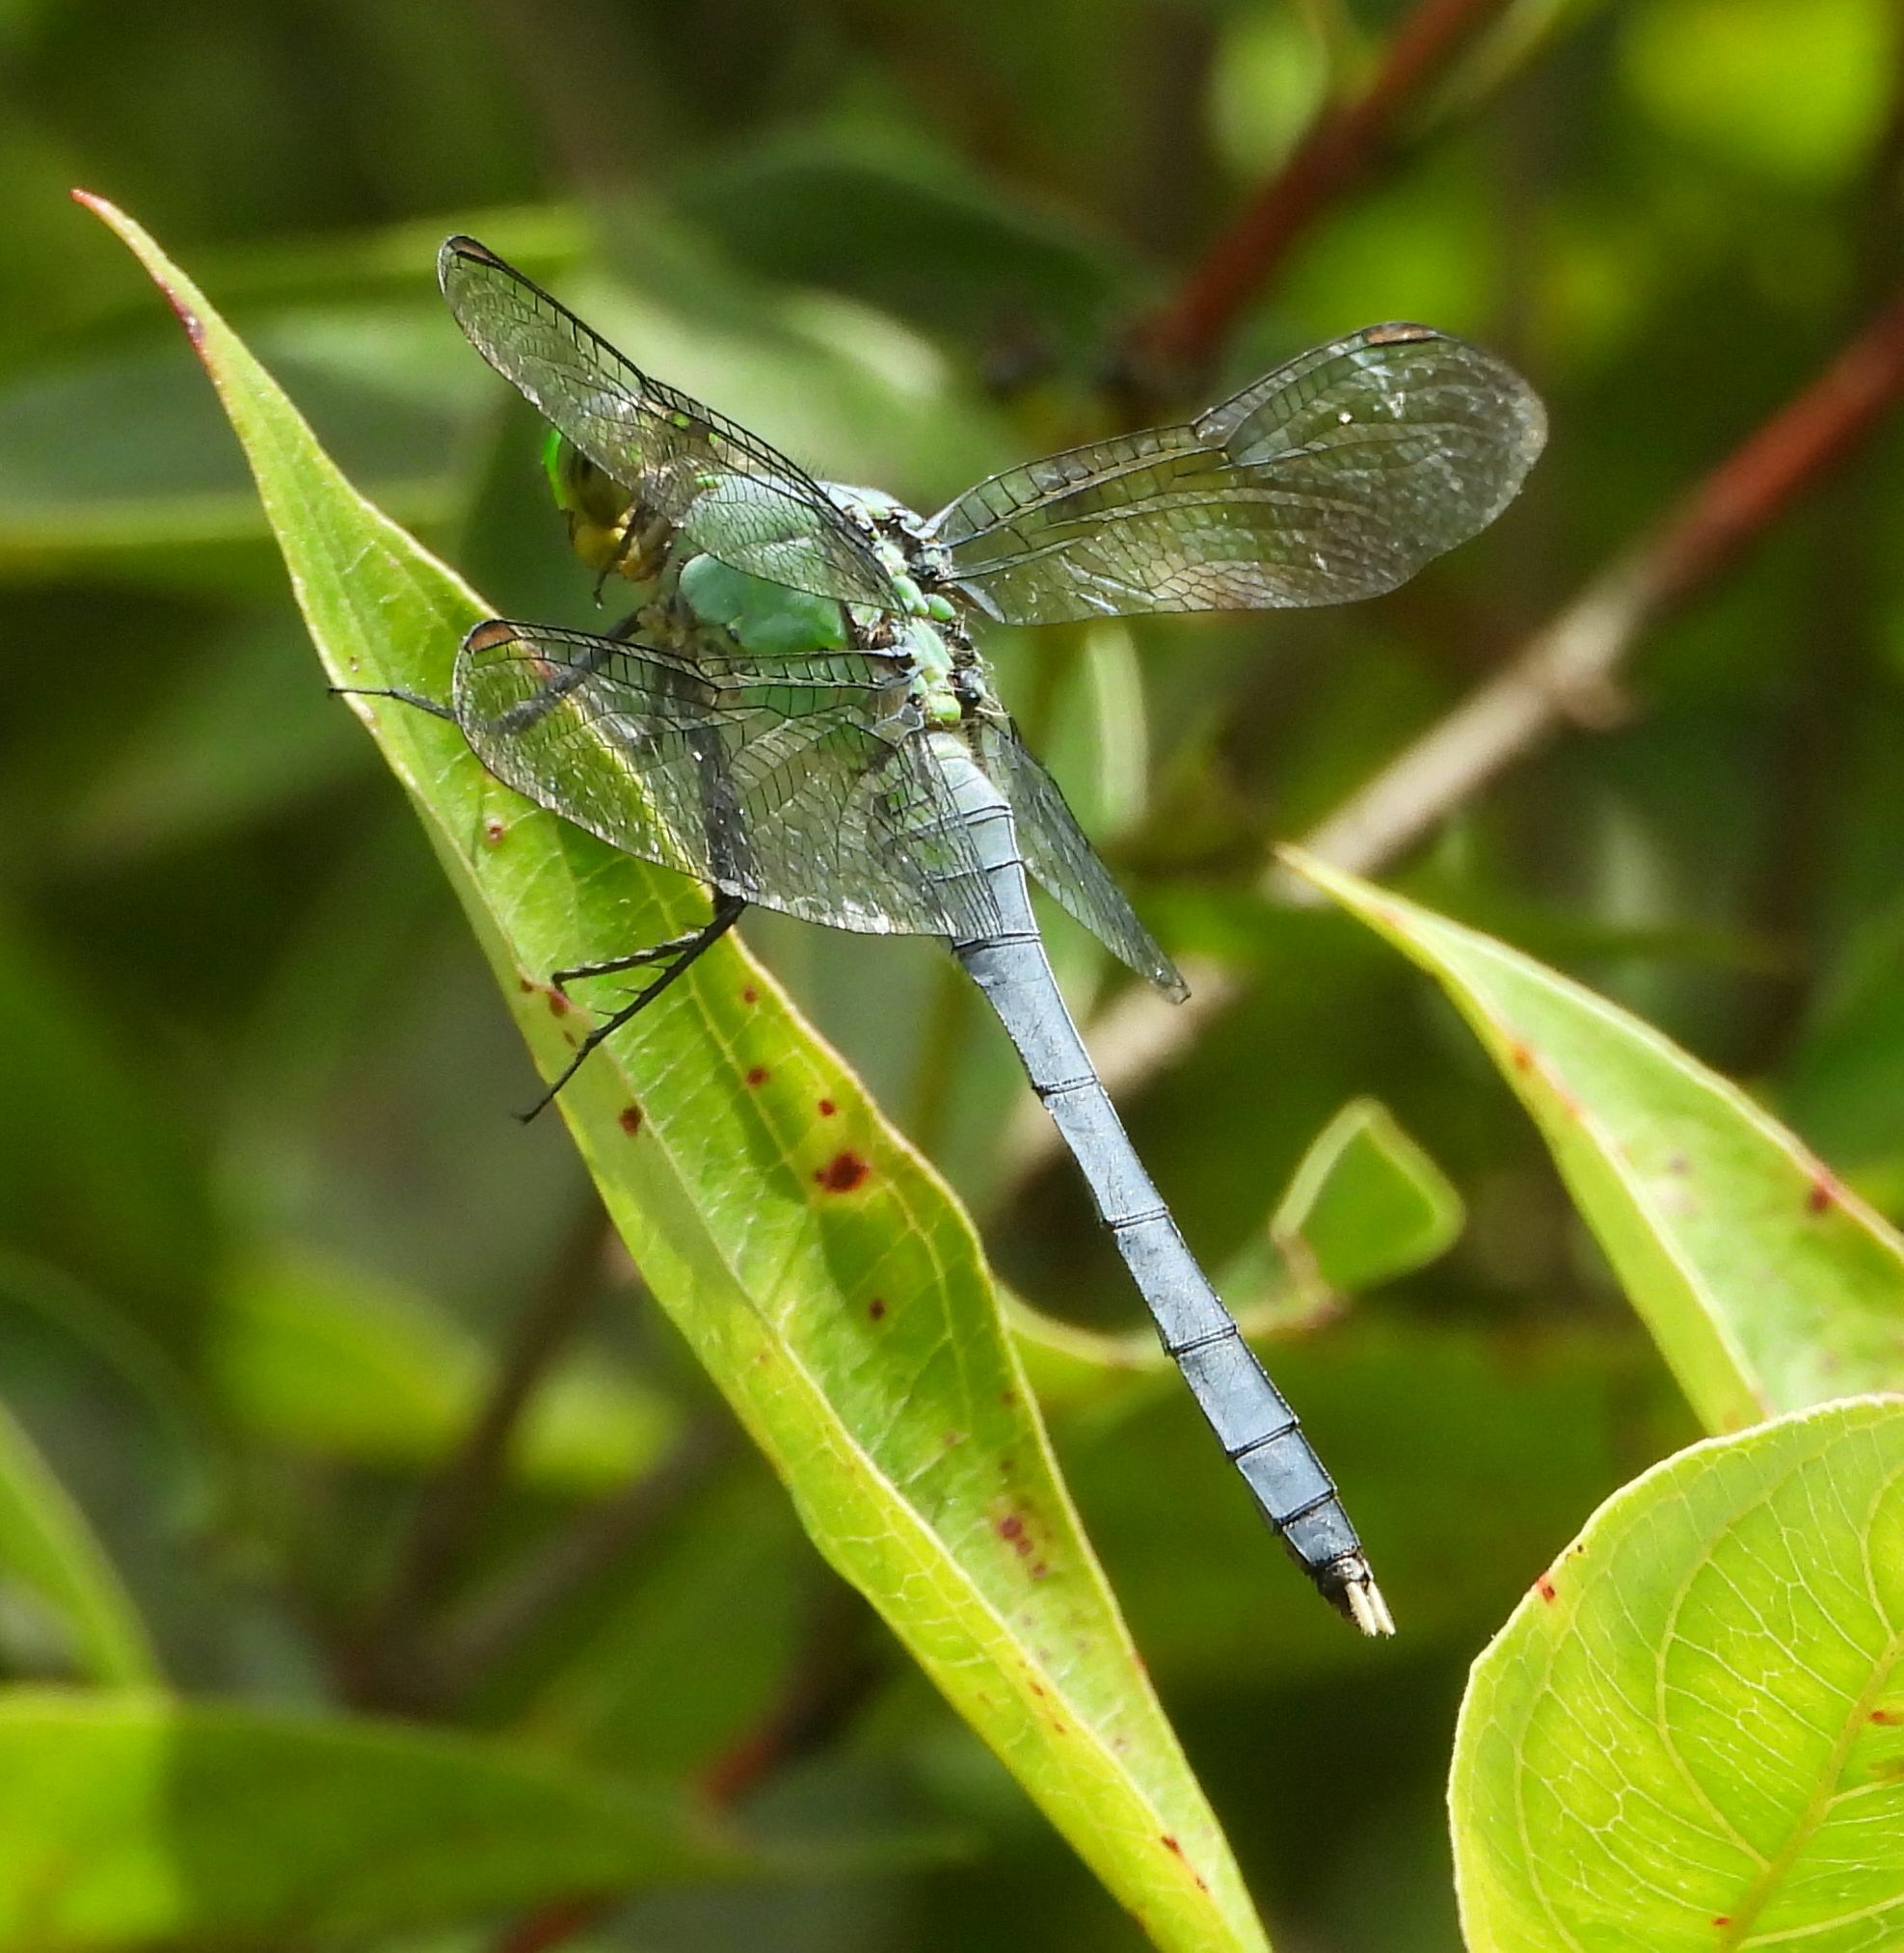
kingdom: Animalia
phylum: Arthropoda
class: Insecta
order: Odonata
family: Libellulidae
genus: Erythemis
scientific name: Erythemis simplicicollis
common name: Eastern pondhawk
